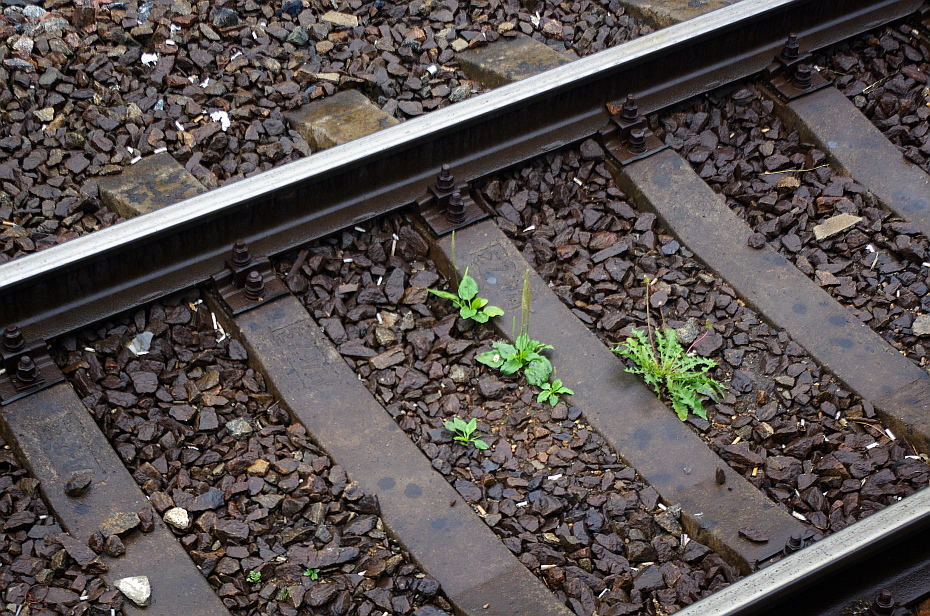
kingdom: Plantae
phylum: Tracheophyta
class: Magnoliopsida
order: Lamiales
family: Plantaginaceae
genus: Plantago
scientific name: Plantago major
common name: Common plantain
